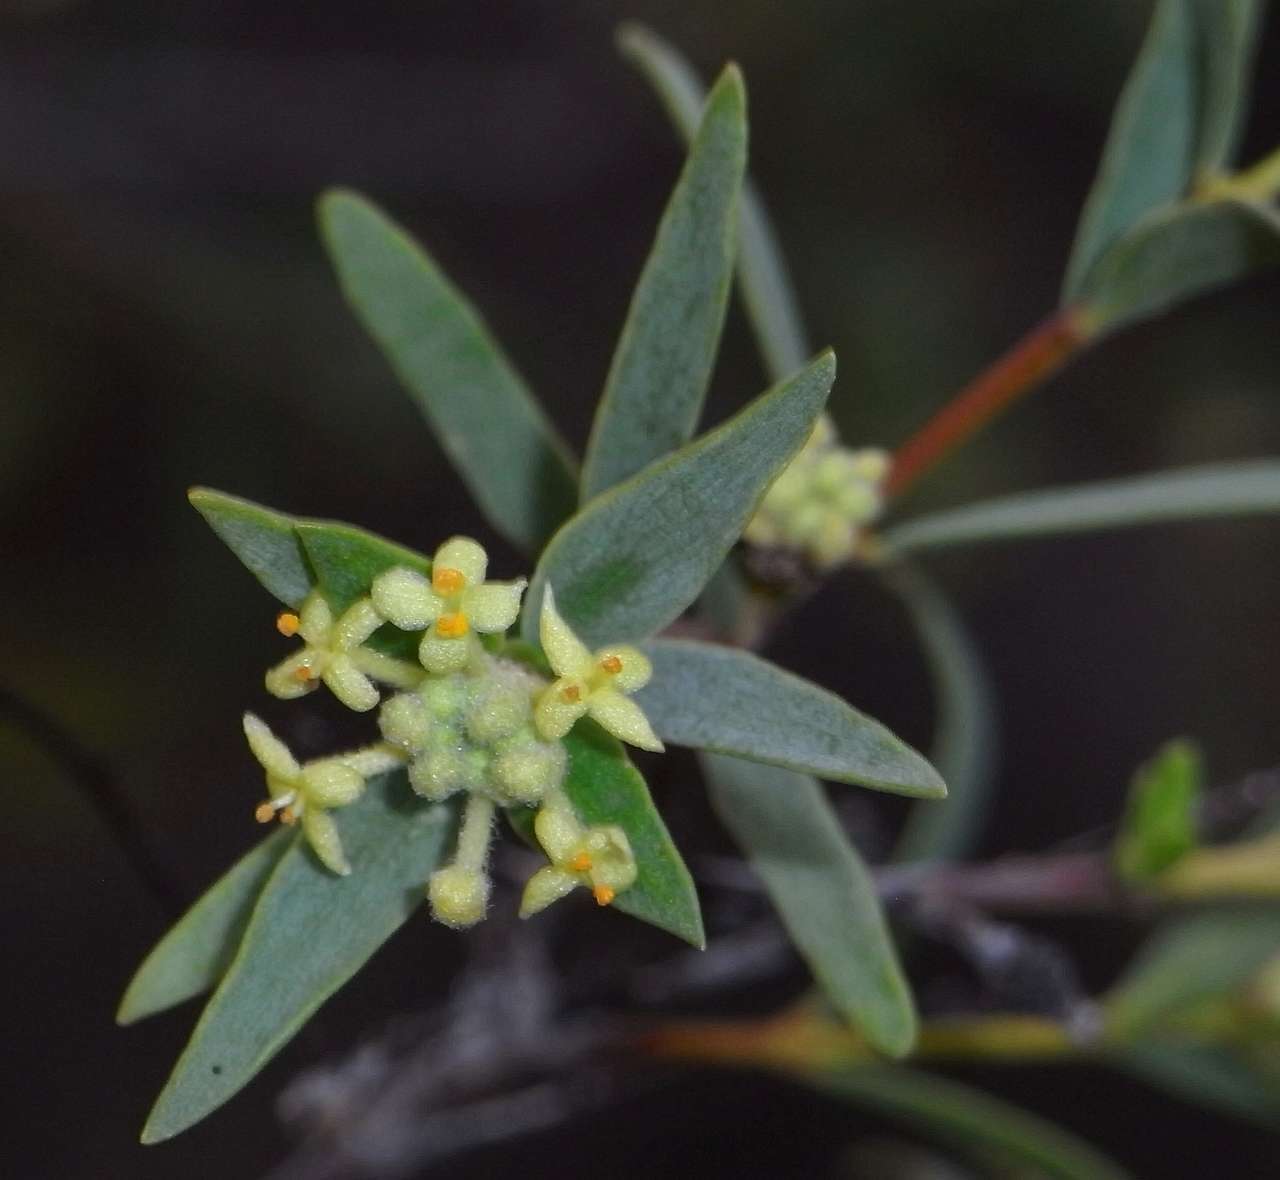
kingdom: Plantae
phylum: Tracheophyta
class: Magnoliopsida
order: Malvales
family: Thymelaeaceae
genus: Pimelea
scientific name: Pimelea microcephala
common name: Mallee riceflower
